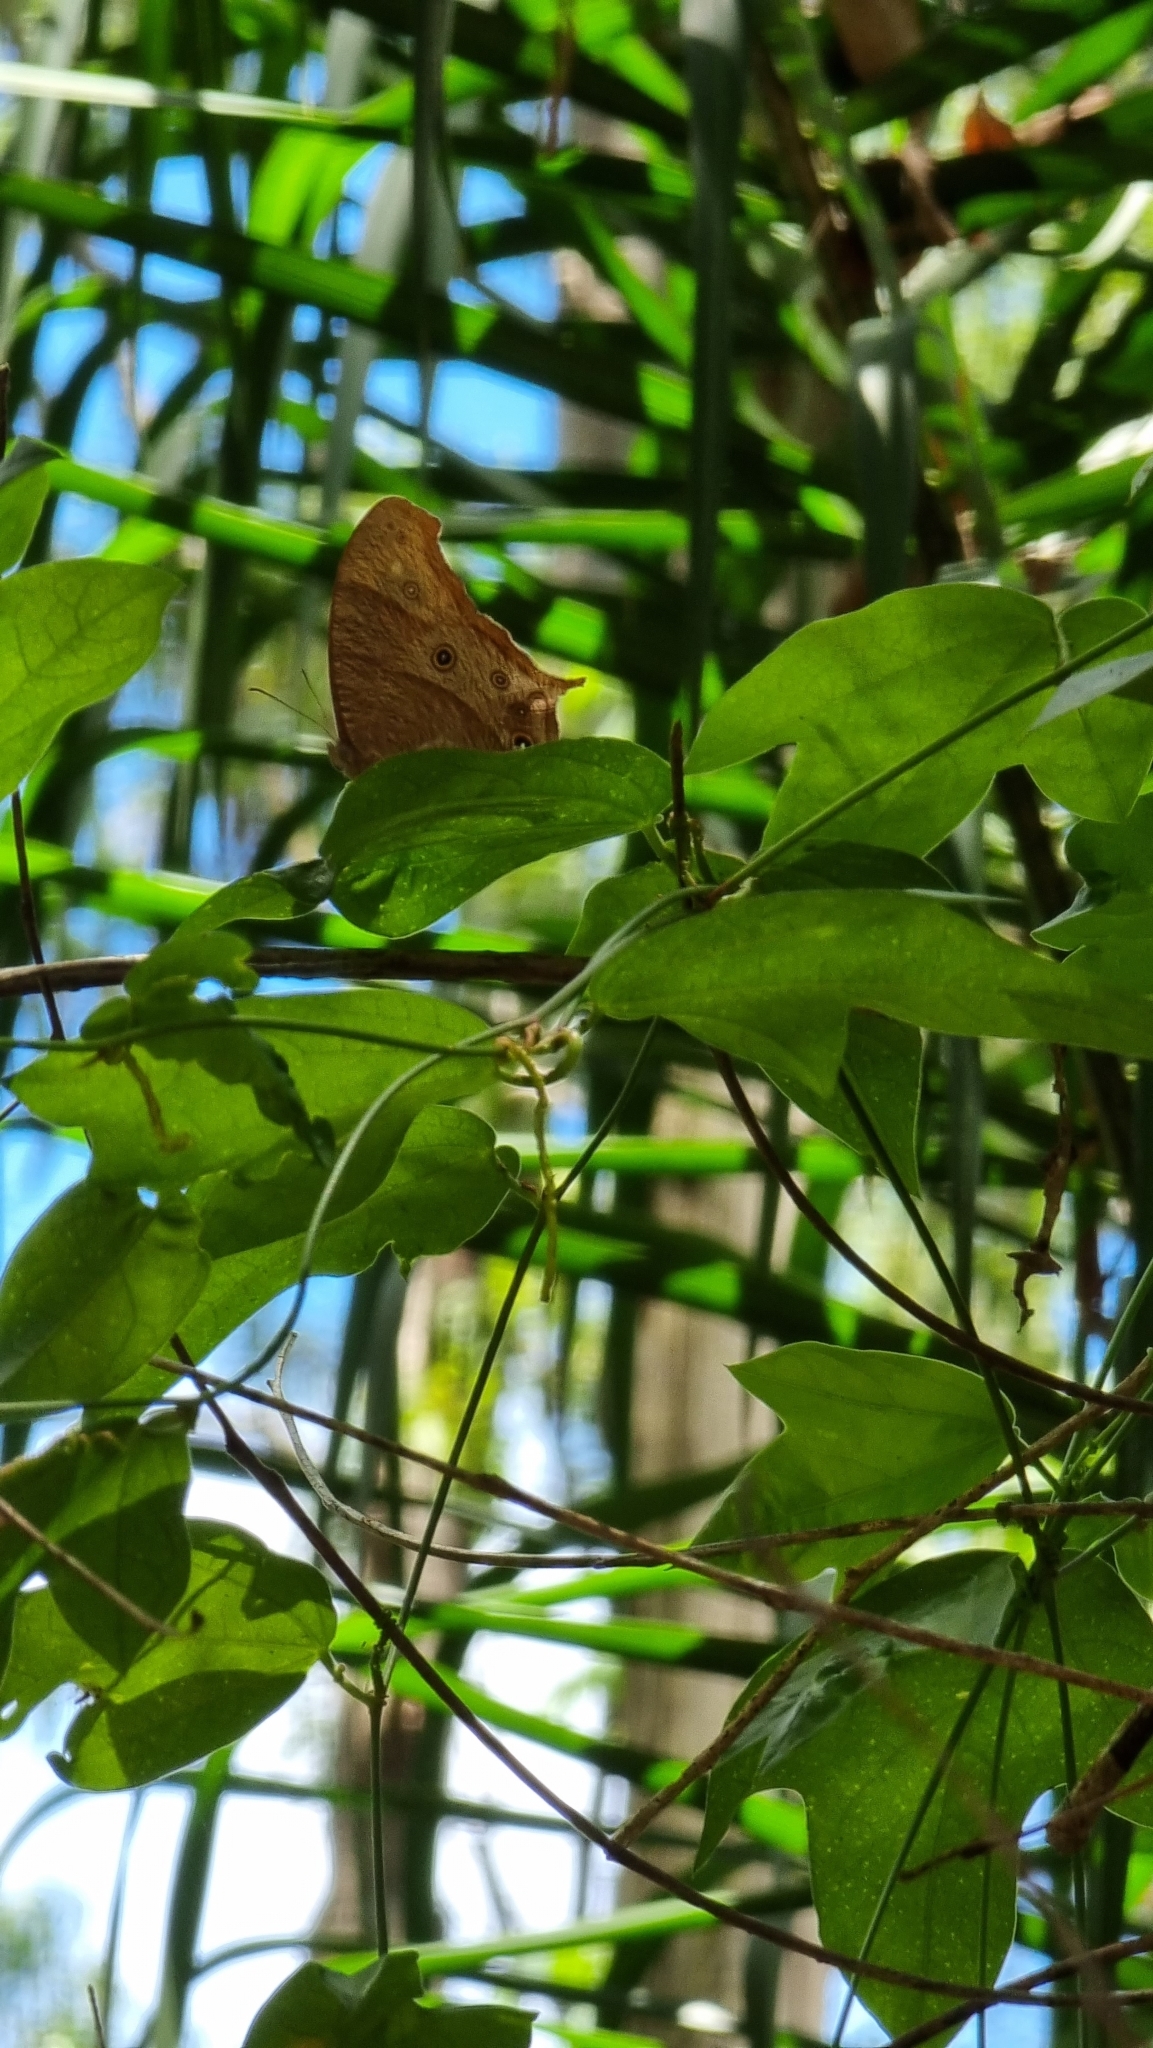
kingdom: Animalia
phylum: Arthropoda
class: Insecta
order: Lepidoptera
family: Nymphalidae
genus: Melanitis
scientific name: Melanitis leda
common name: Twilight brown
